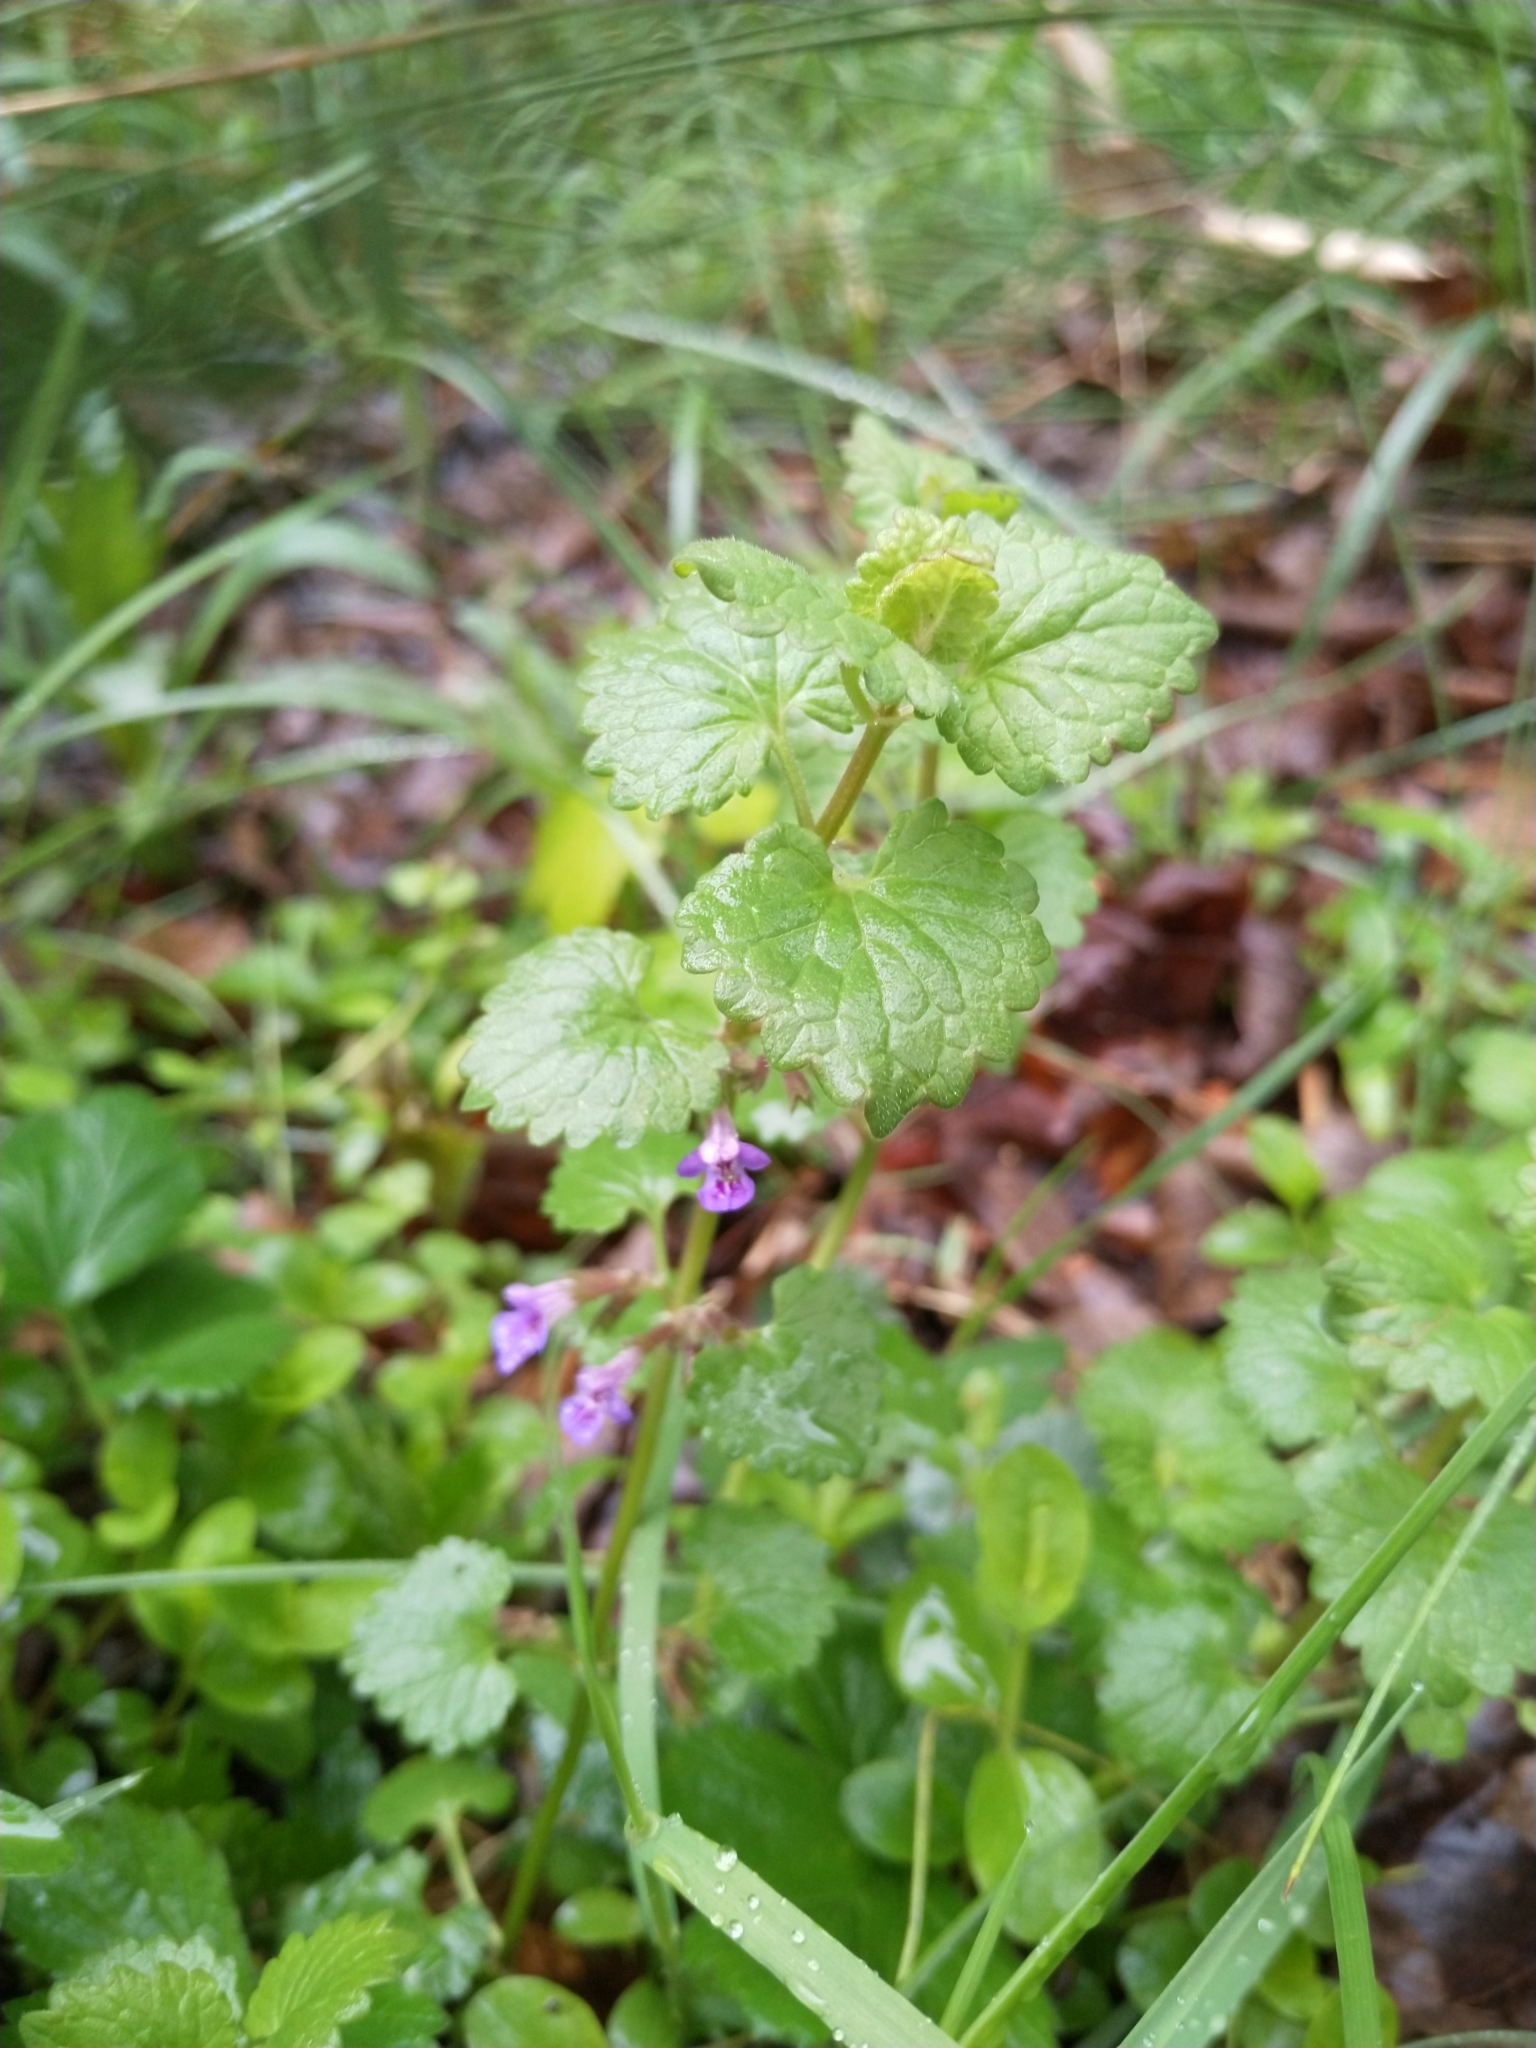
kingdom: Plantae
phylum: Tracheophyta
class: Magnoliopsida
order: Lamiales
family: Lamiaceae
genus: Glechoma
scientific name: Glechoma hederacea
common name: Ground ivy
